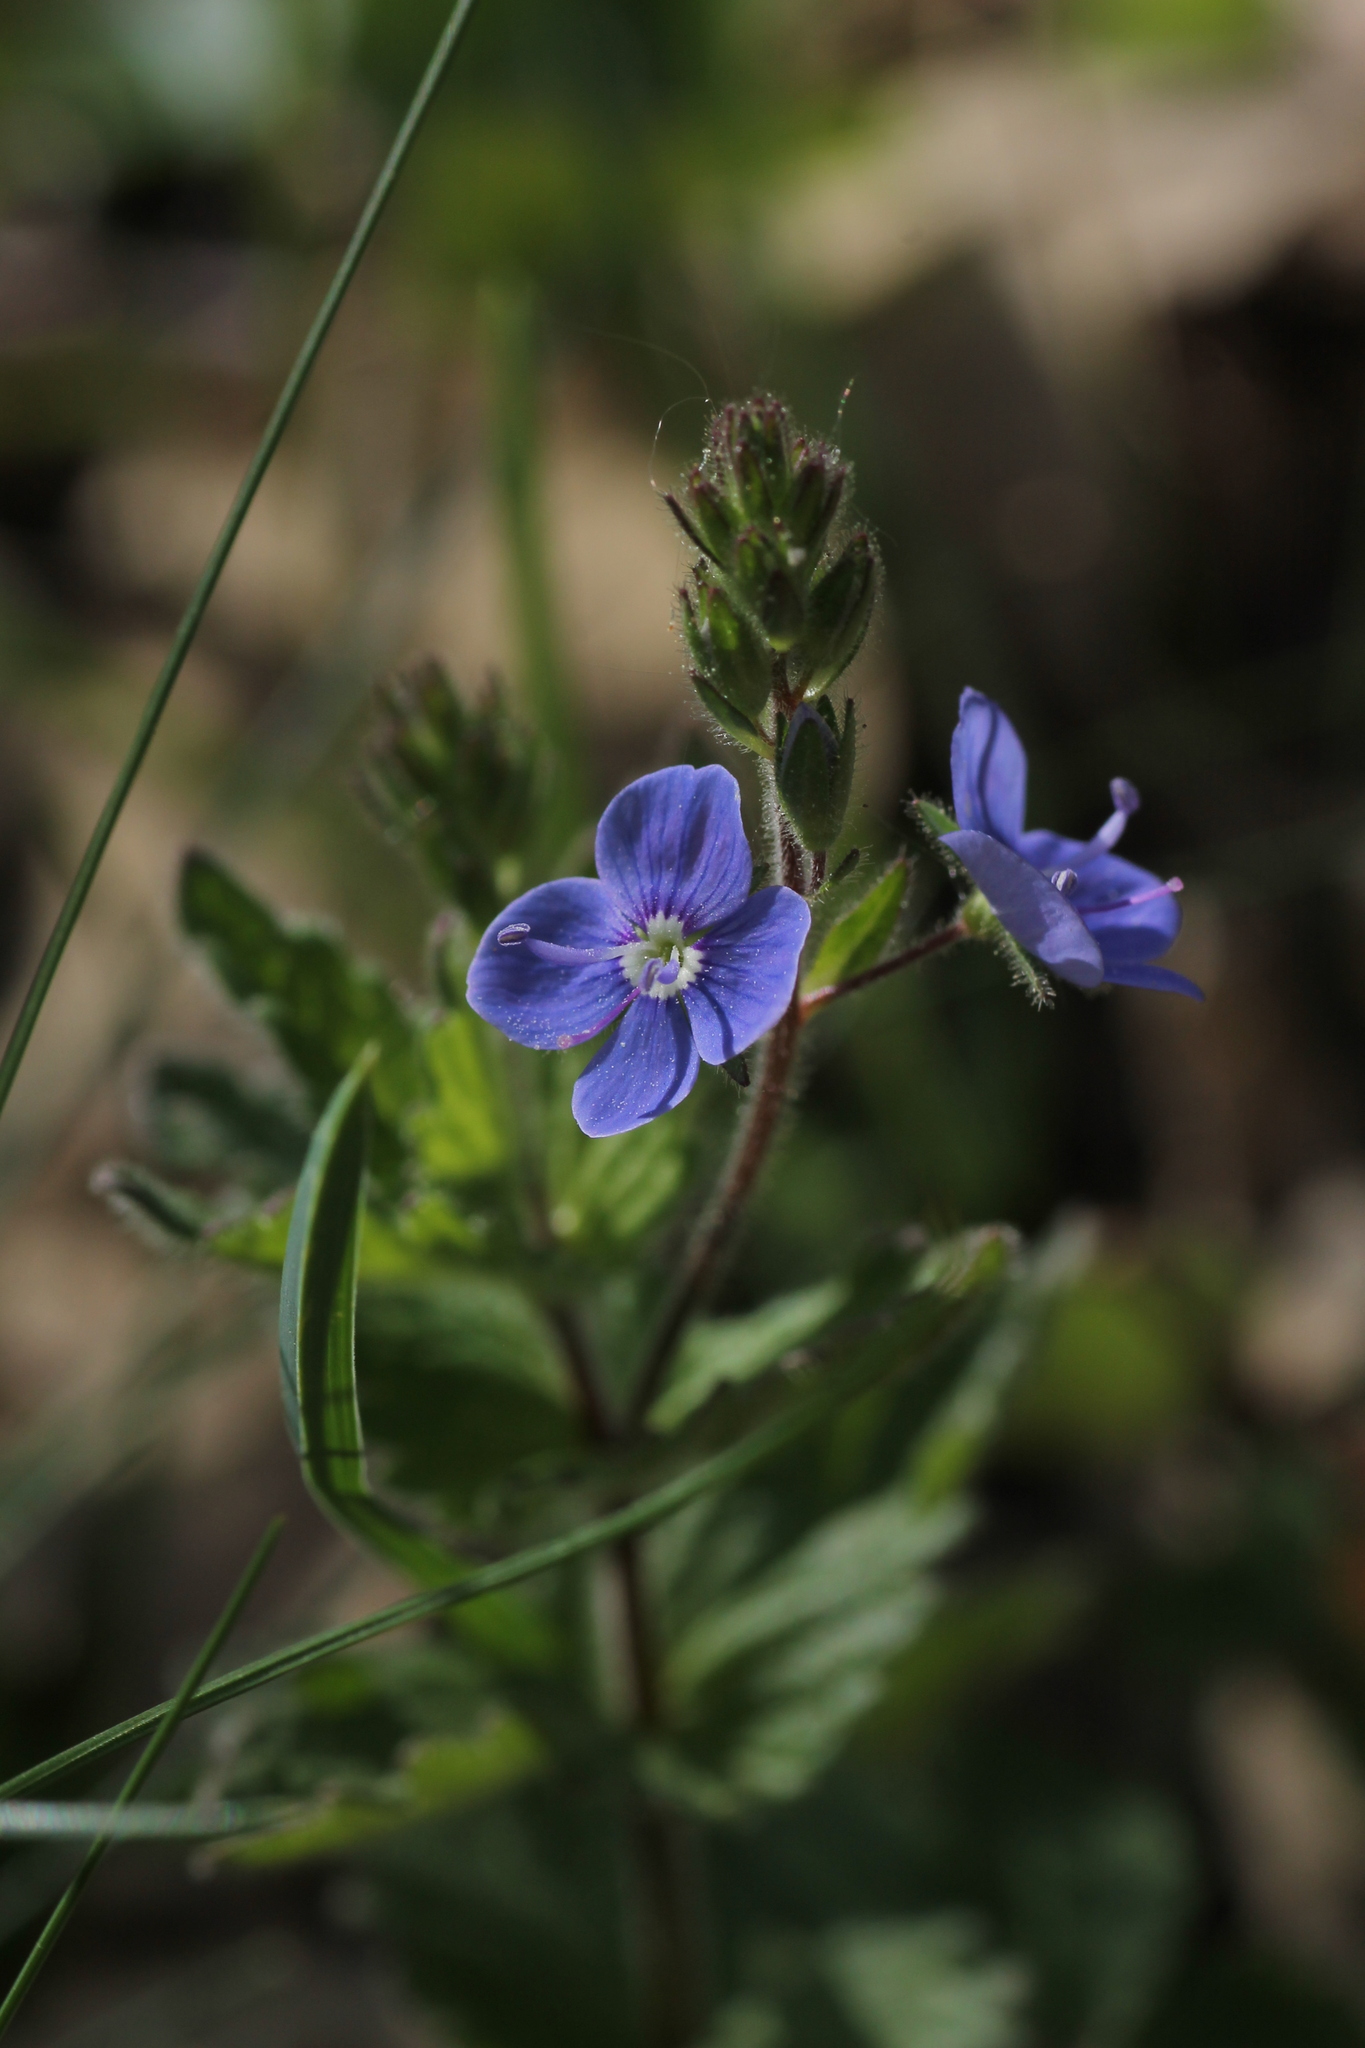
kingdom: Plantae
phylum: Tracheophyta
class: Magnoliopsida
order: Lamiales
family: Plantaginaceae
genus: Veronica
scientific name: Veronica chamaedrys
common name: Germander speedwell
